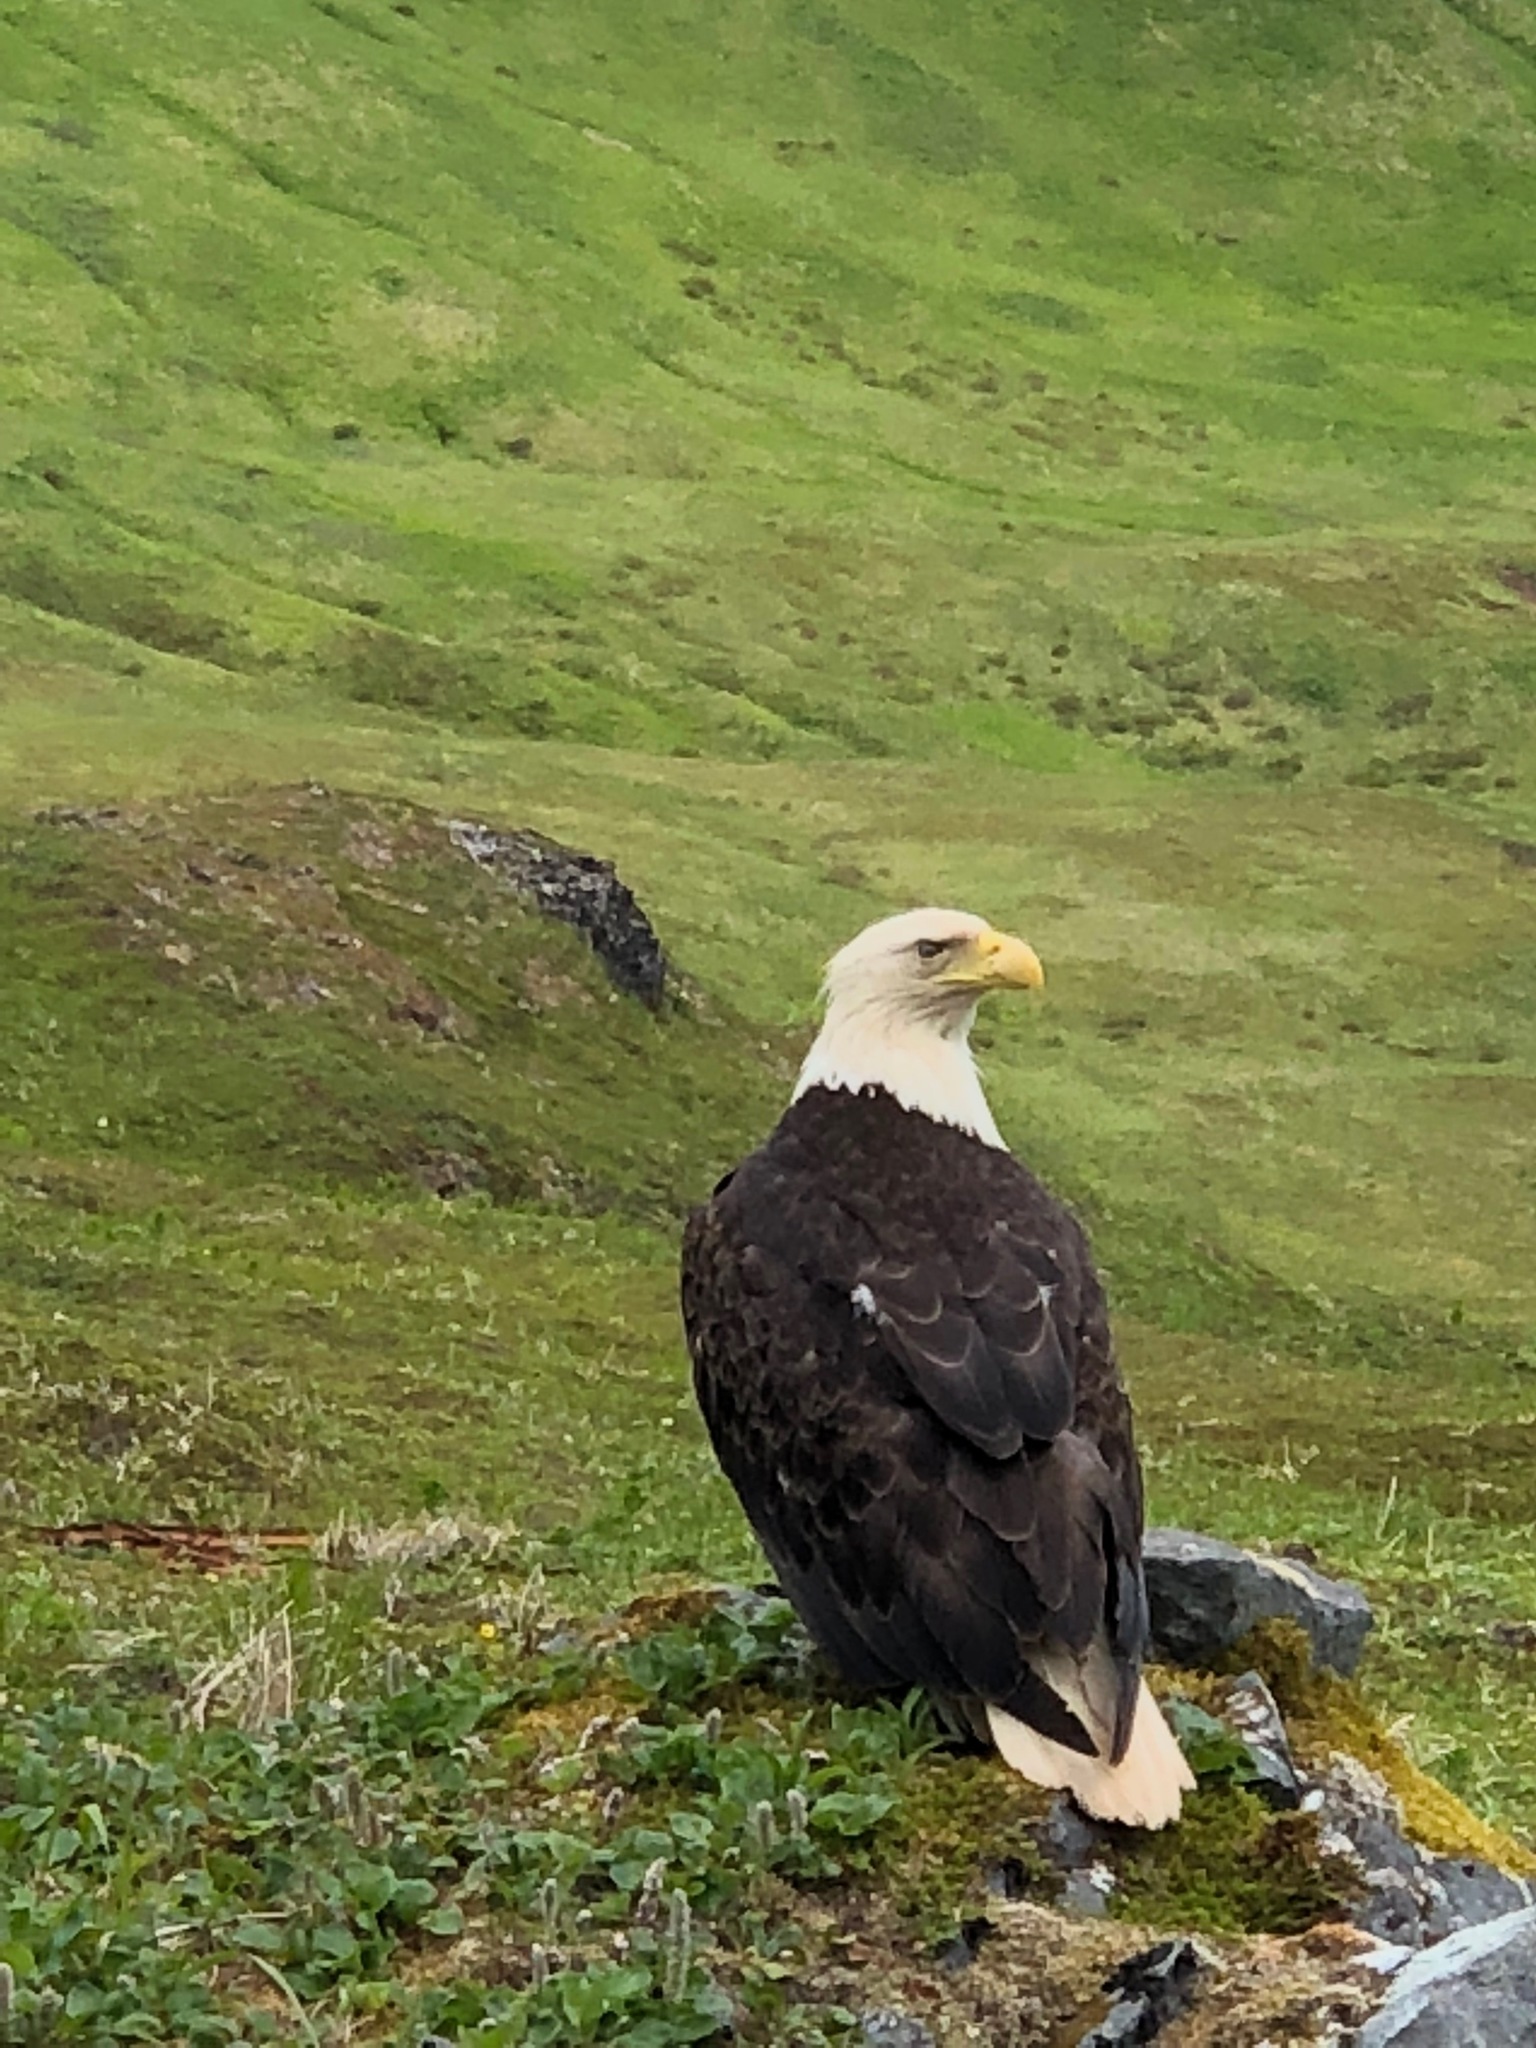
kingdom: Animalia
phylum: Chordata
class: Aves
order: Accipitriformes
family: Accipitridae
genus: Haliaeetus
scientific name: Haliaeetus leucocephalus
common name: Bald eagle
